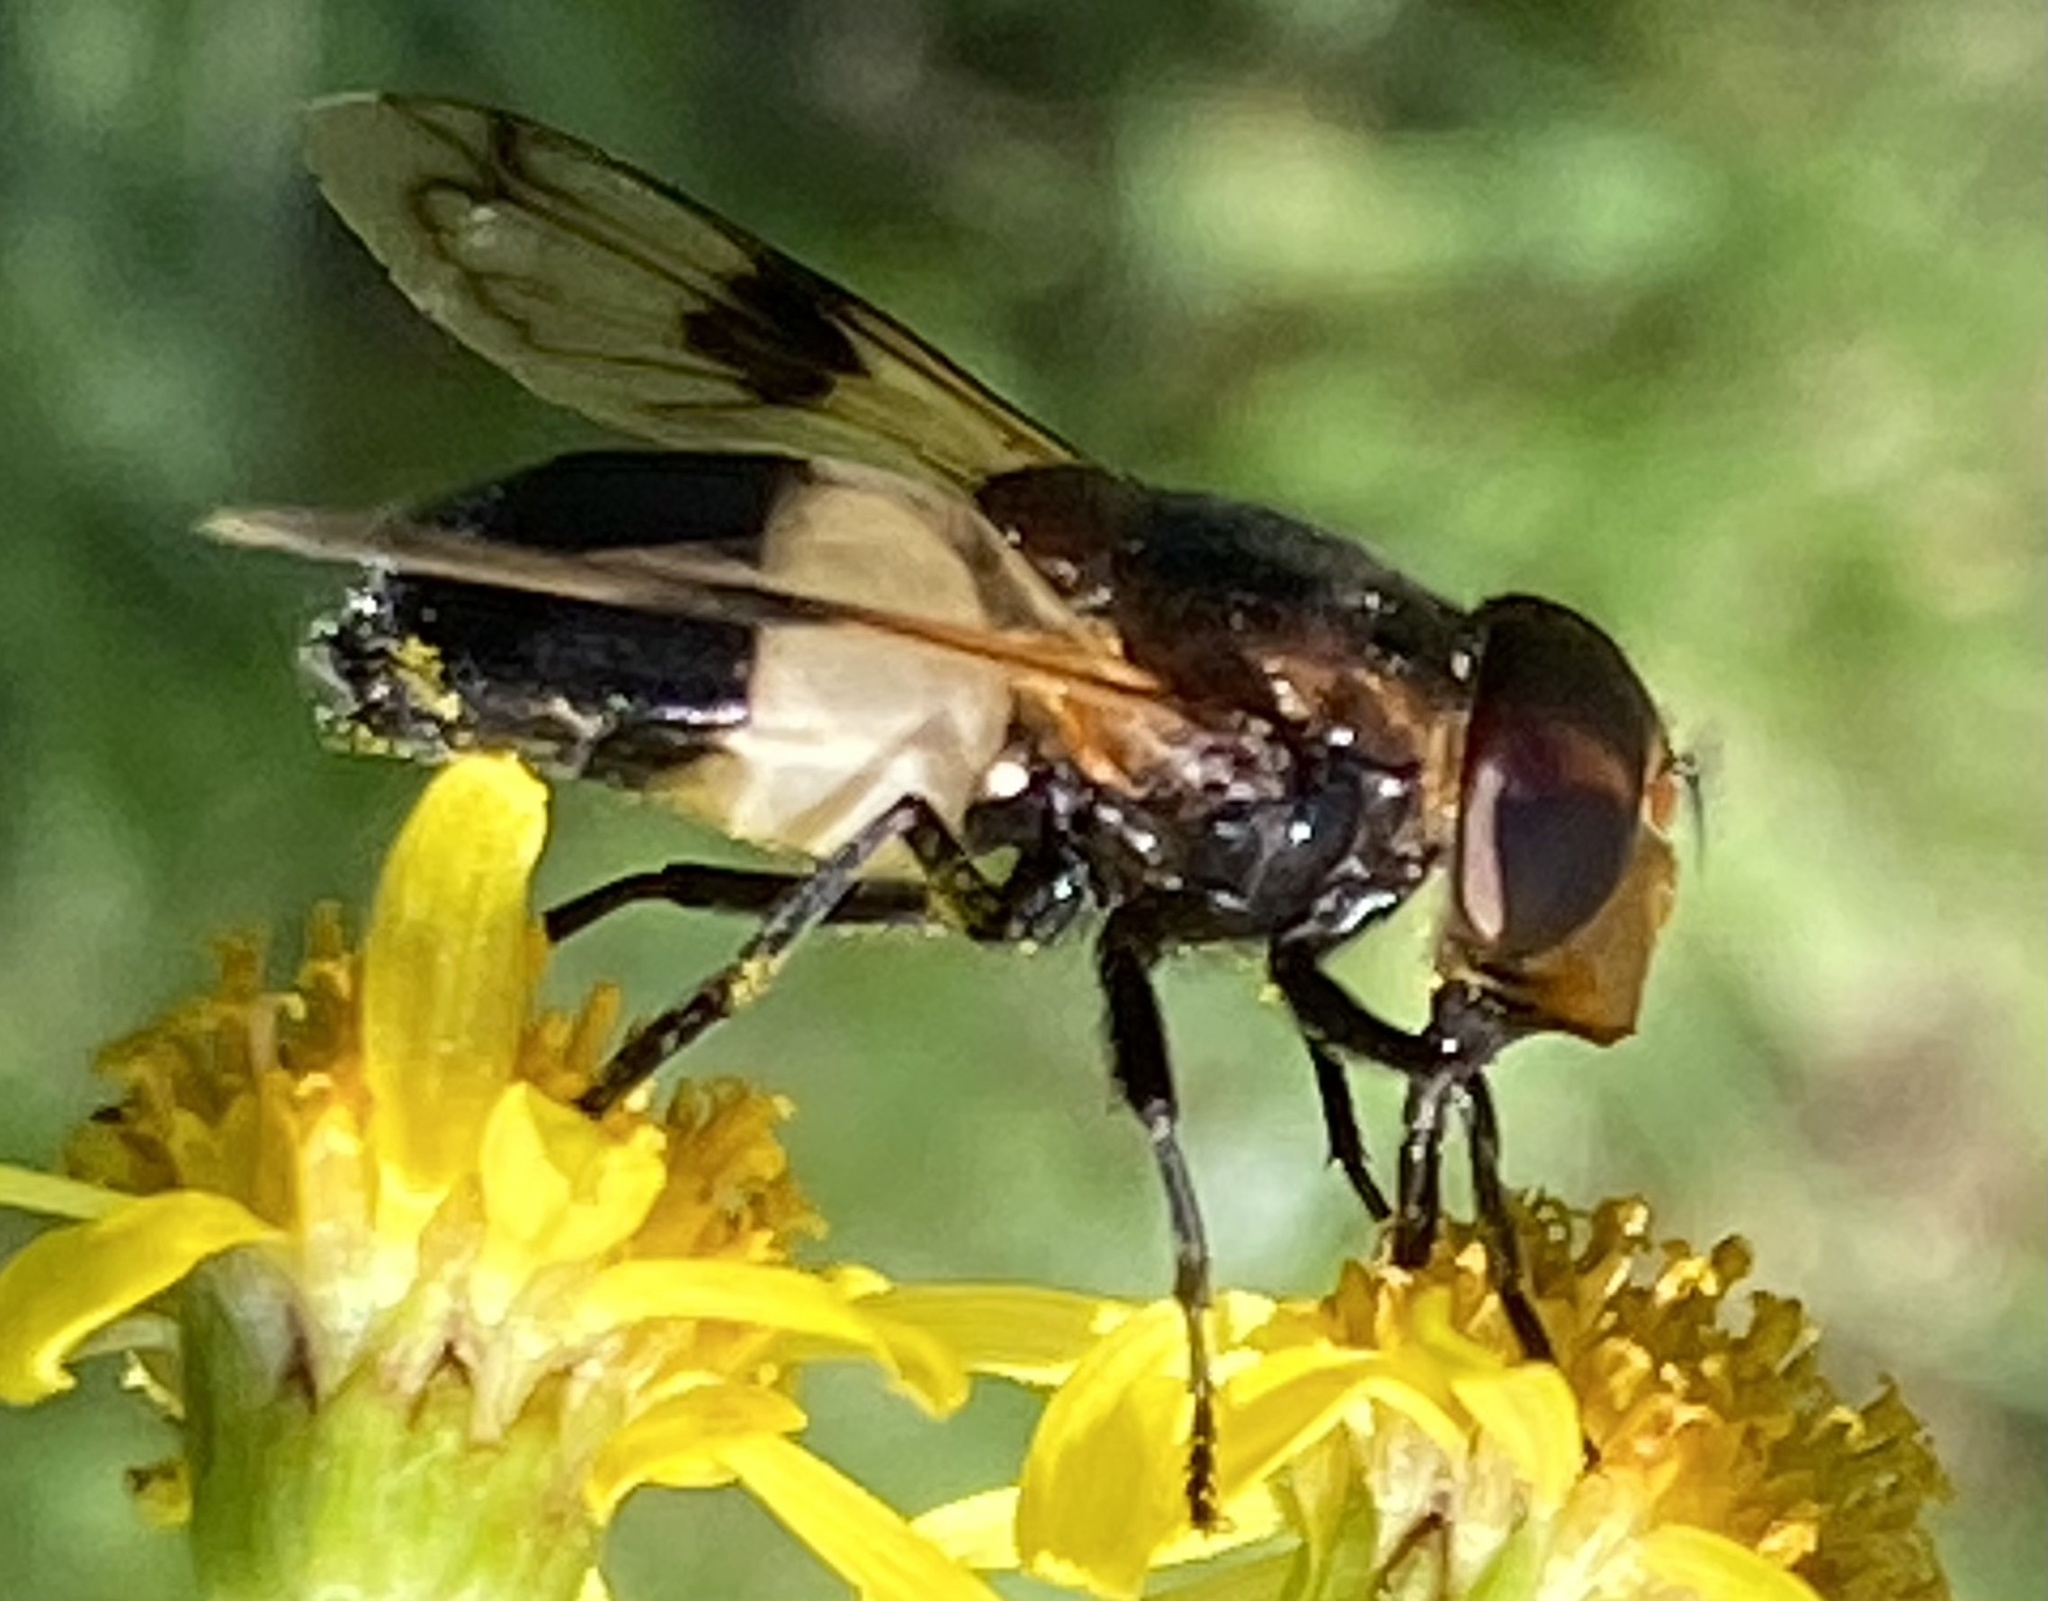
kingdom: Animalia
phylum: Arthropoda
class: Insecta
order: Diptera
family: Syrphidae
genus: Volucella
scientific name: Volucella pellucens
